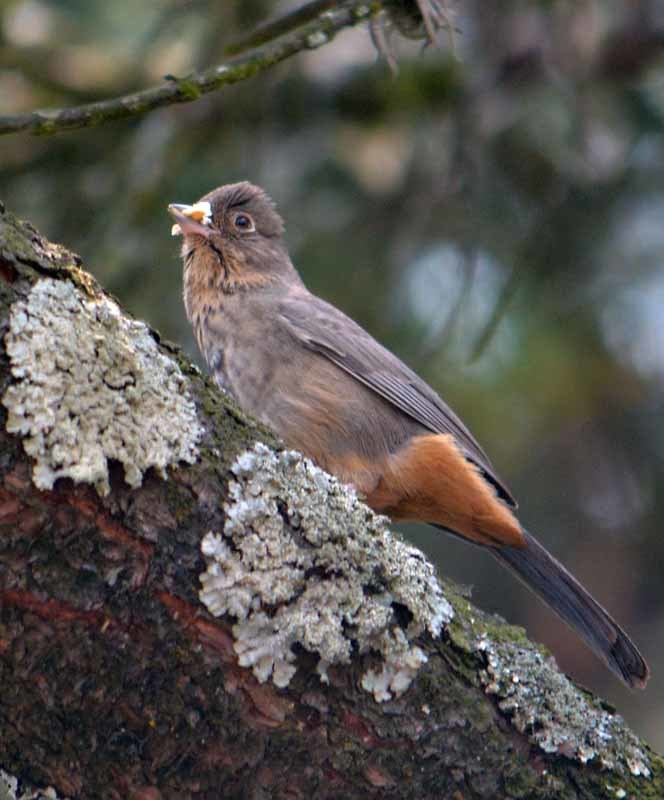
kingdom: Animalia
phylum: Chordata
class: Aves
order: Passeriformes
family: Passerellidae
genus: Melozone
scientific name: Melozone fusca
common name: Canyon towhee
